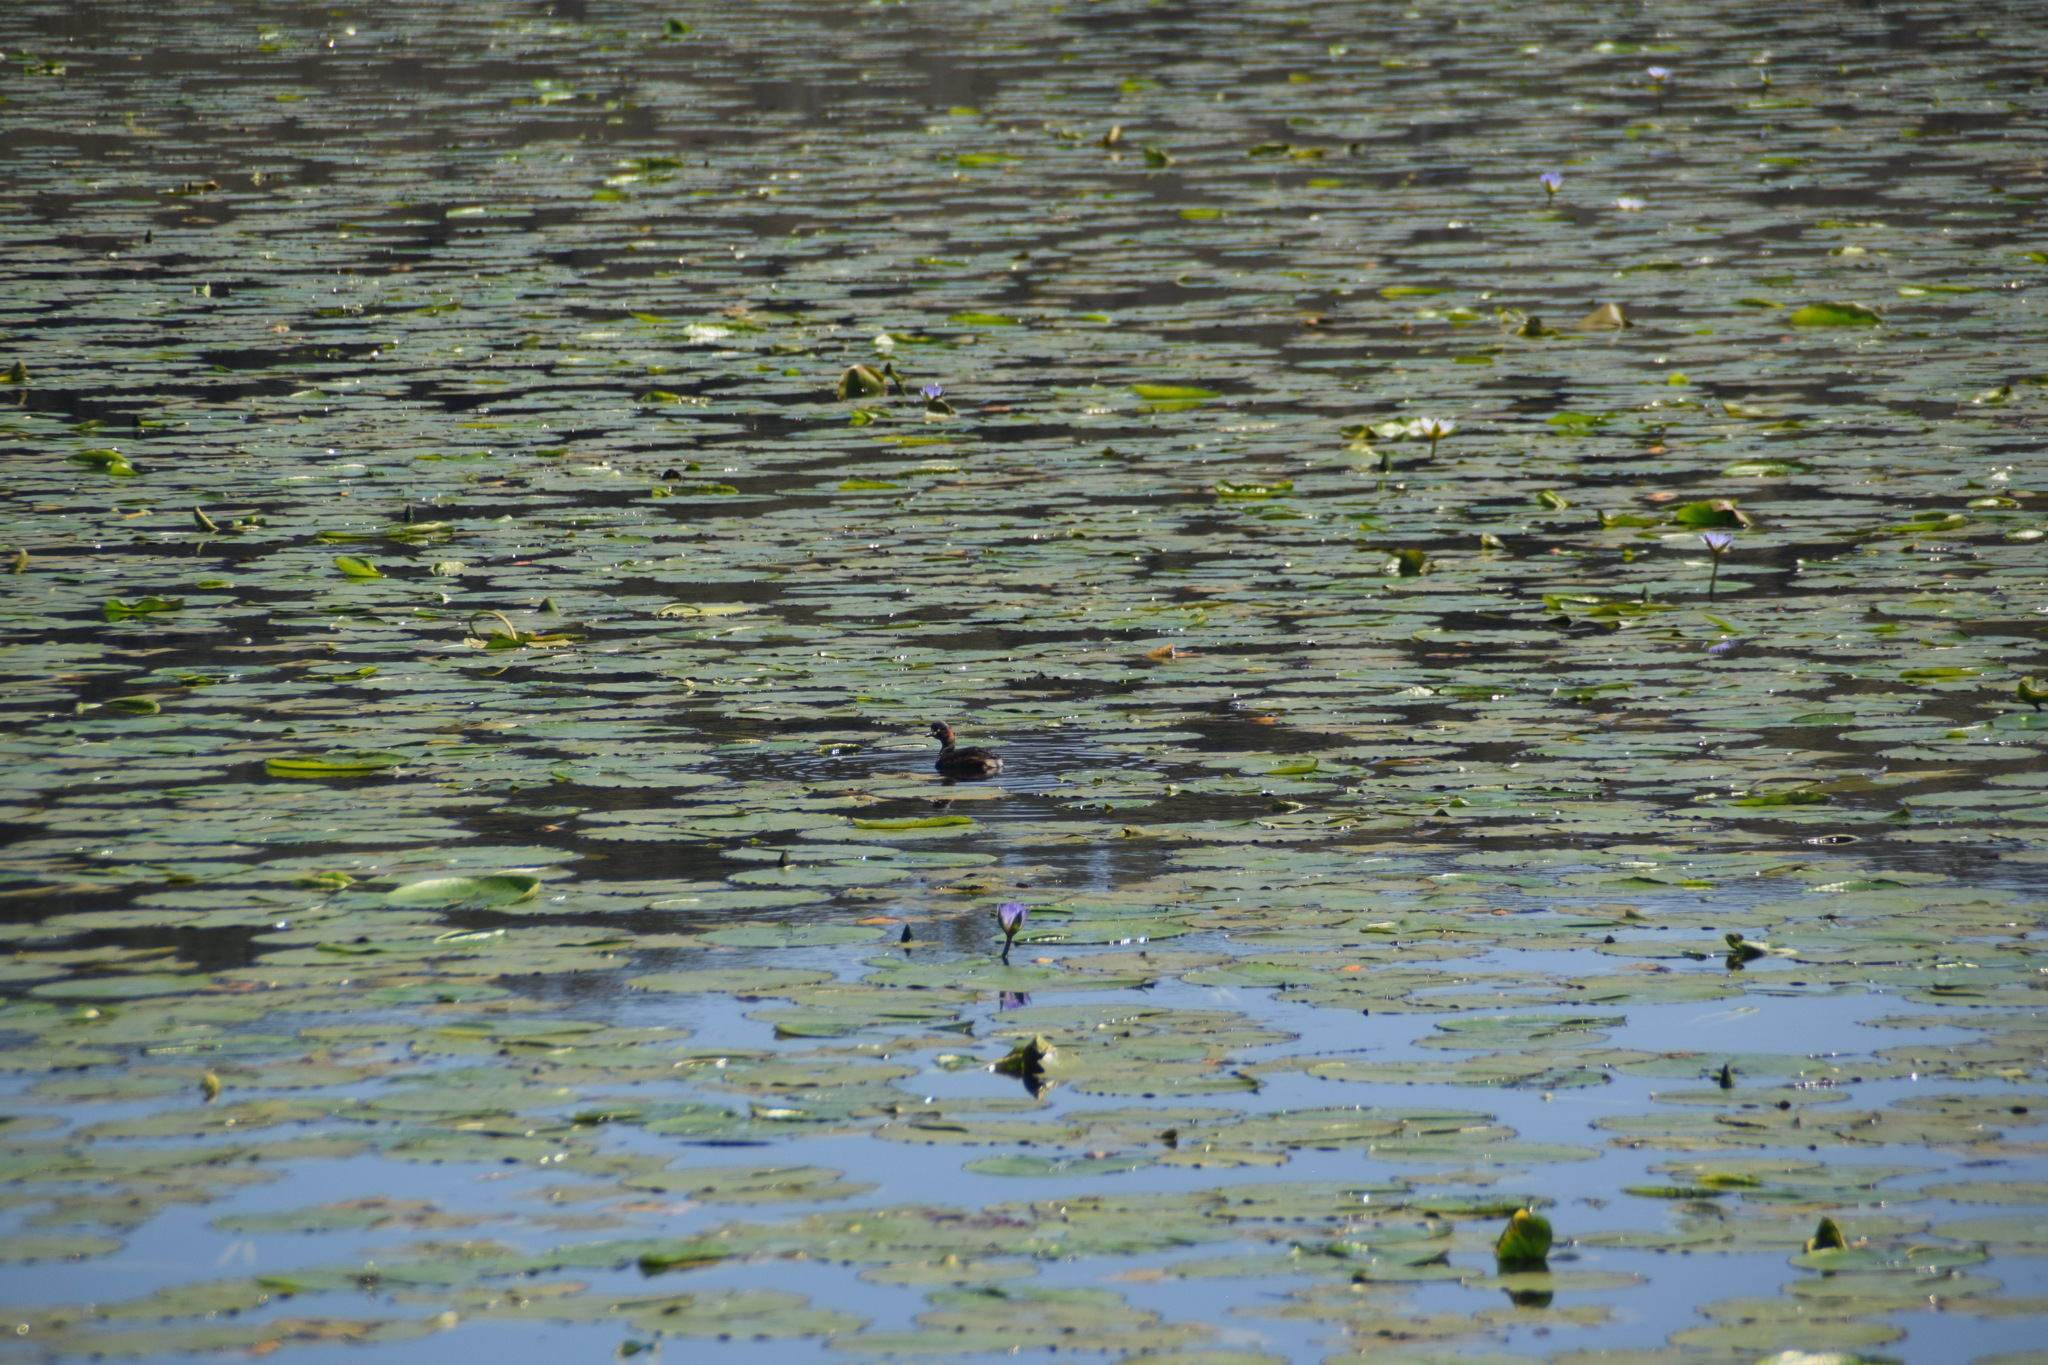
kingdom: Animalia
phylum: Chordata
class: Aves
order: Podicipediformes
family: Podicipedidae
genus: Tachybaptus
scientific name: Tachybaptus novaehollandiae
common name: Australasian grebe
